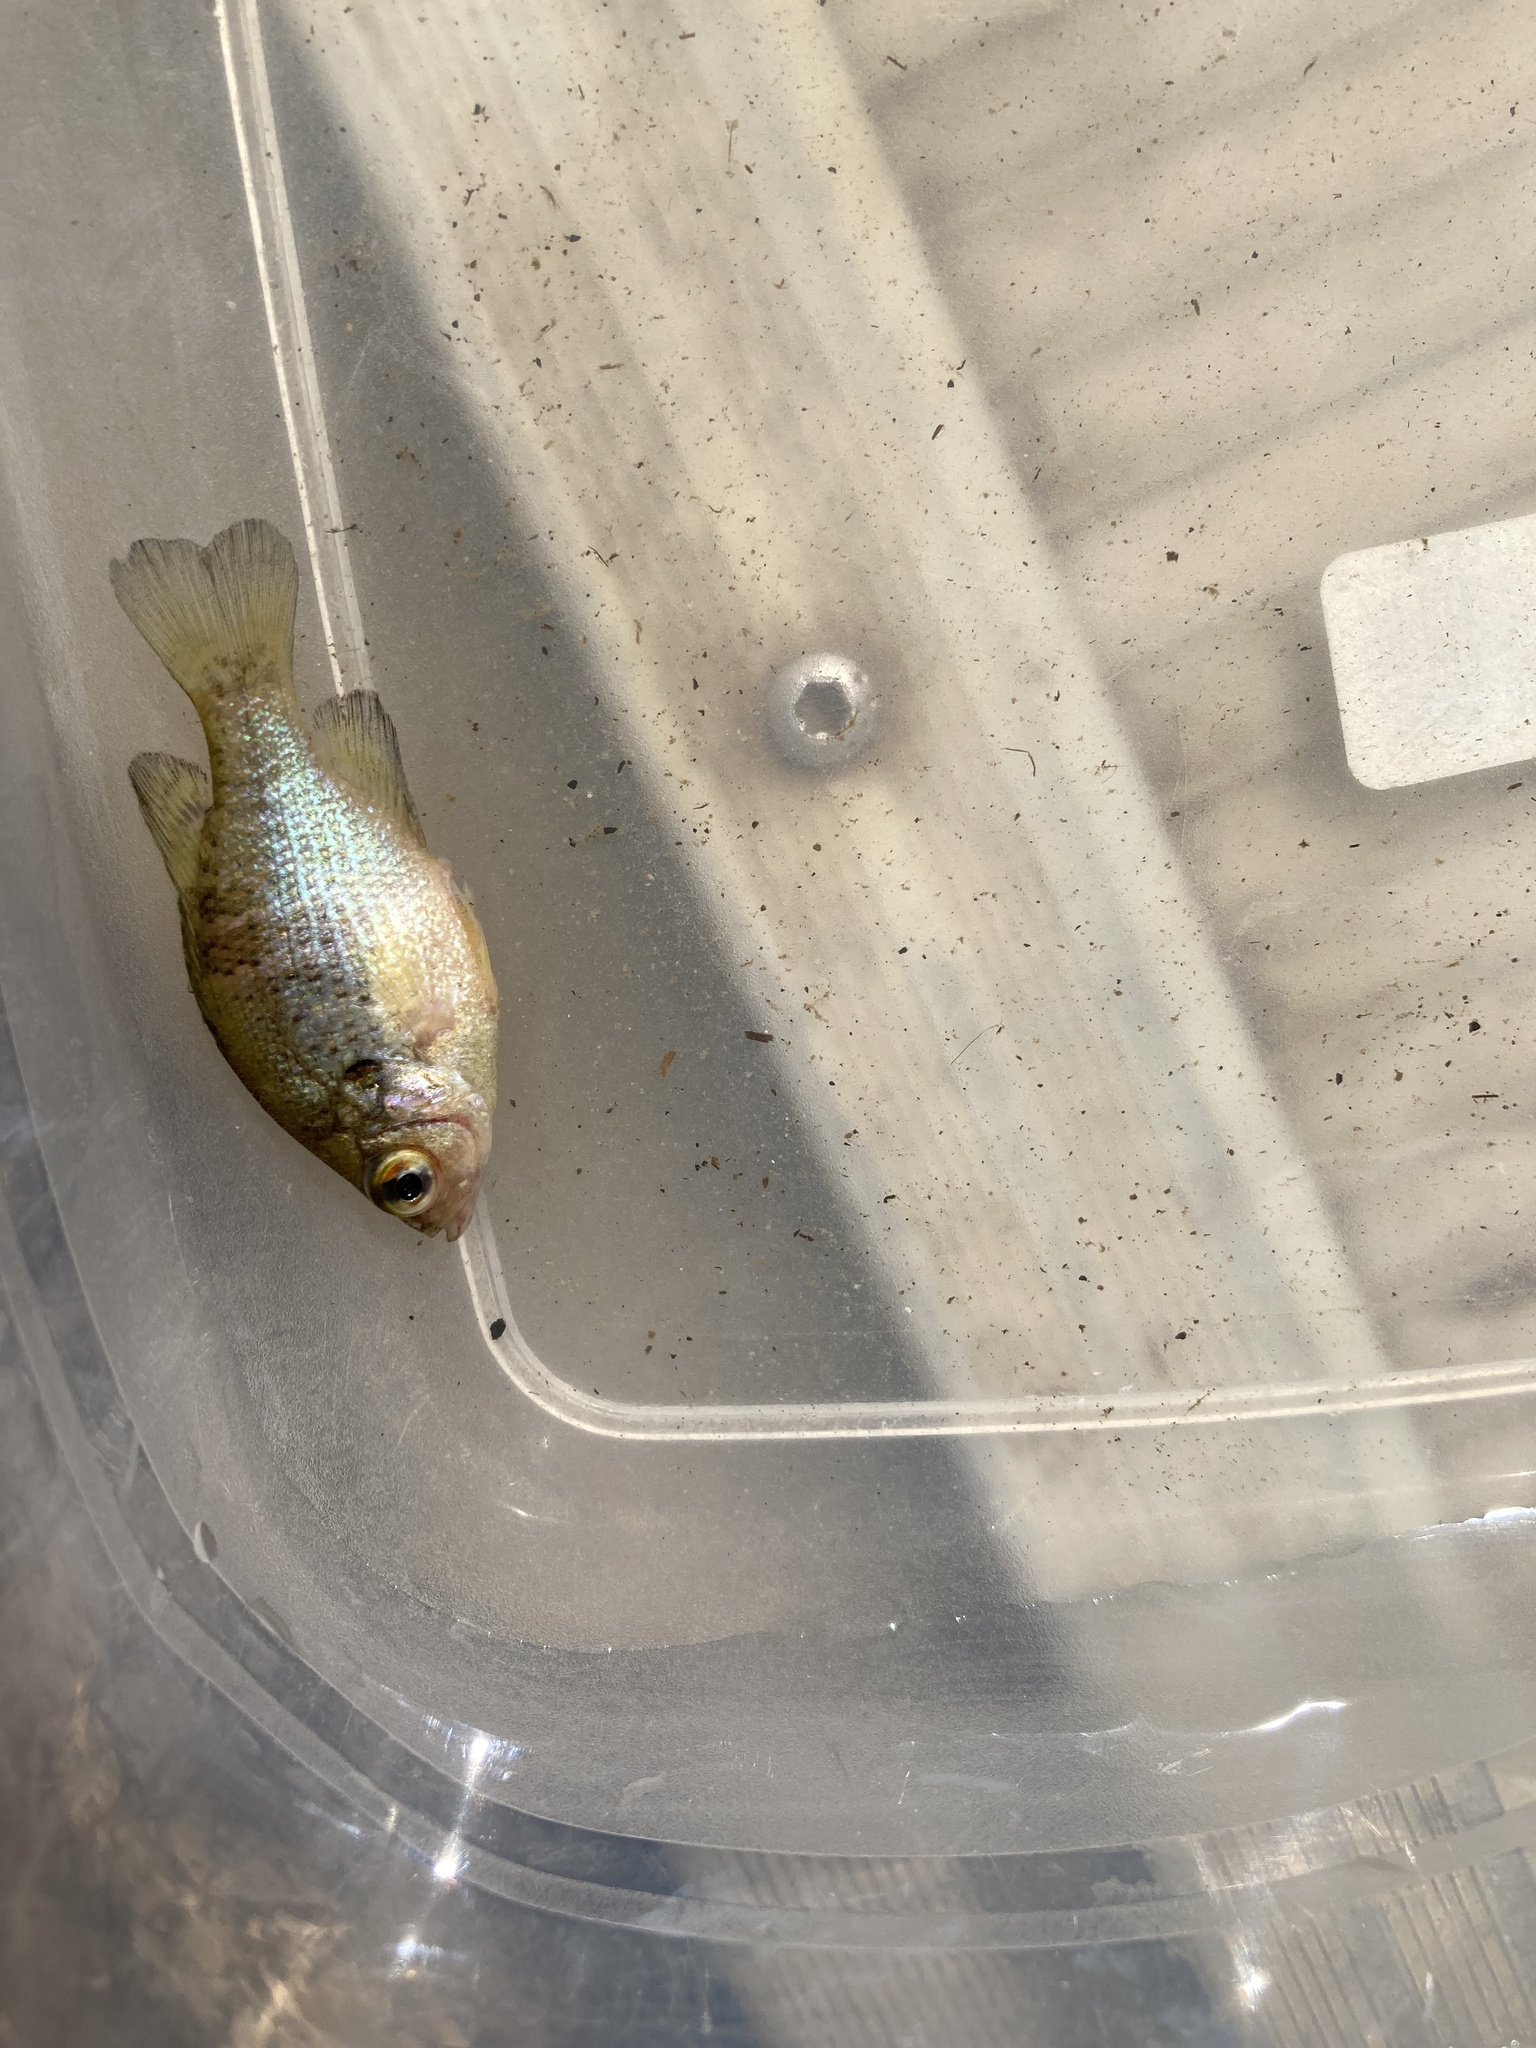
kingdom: Animalia
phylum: Chordata
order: Perciformes
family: Centrarchidae
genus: Lepomis
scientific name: Lepomis symmetricus
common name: Bantam sunfish
